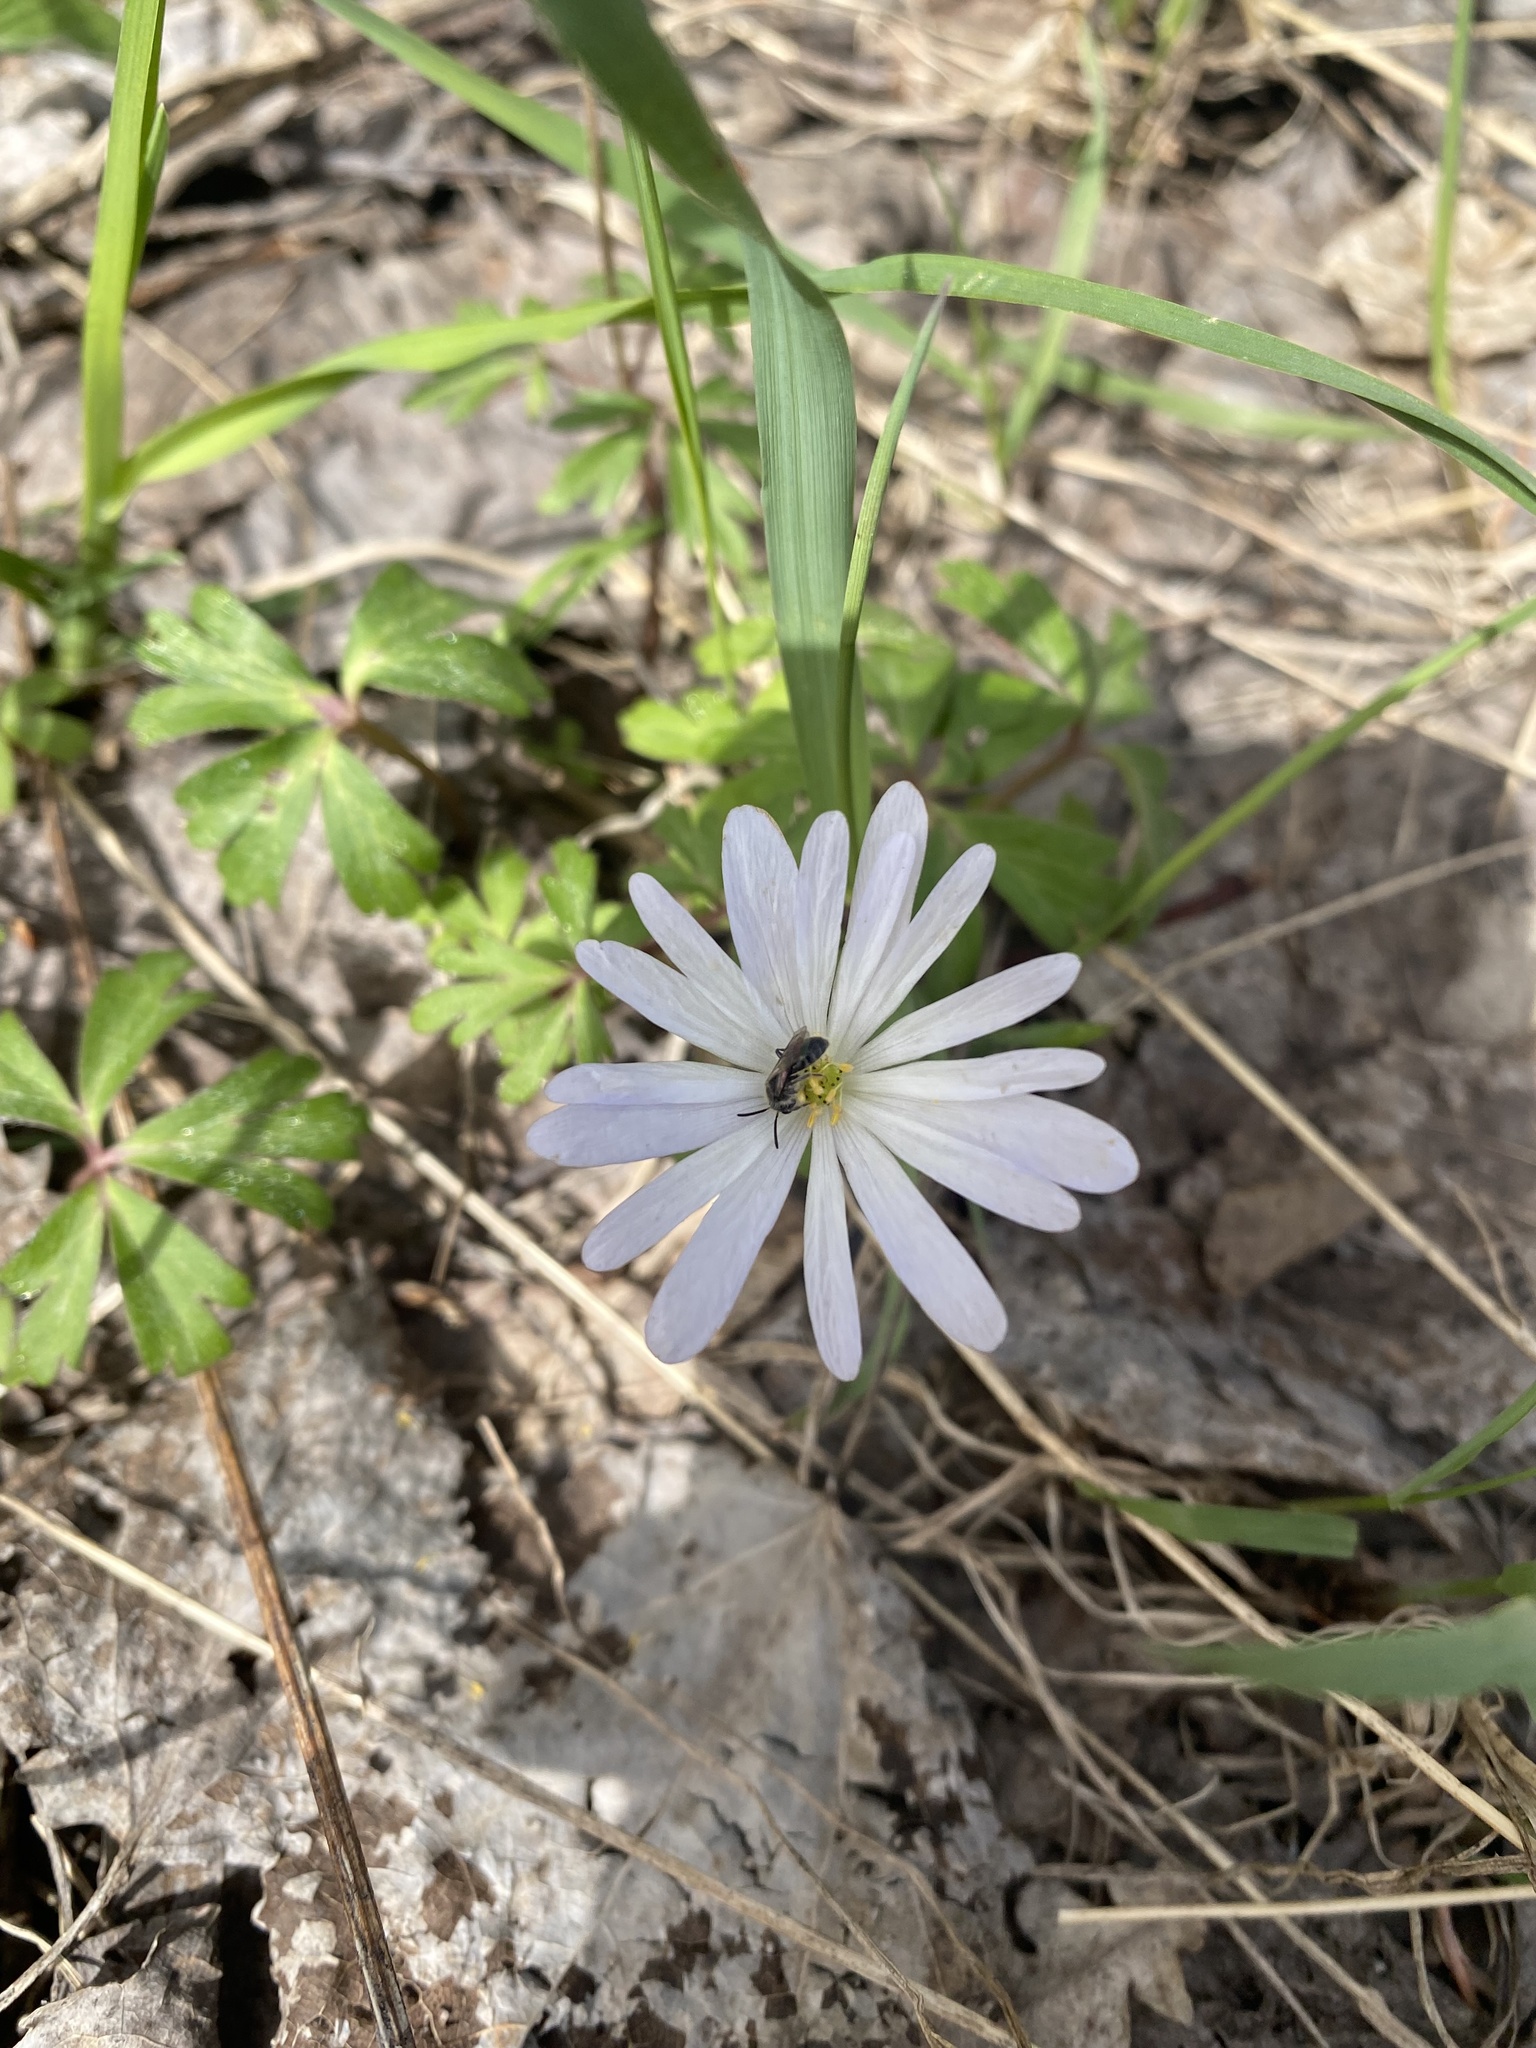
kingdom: Plantae
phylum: Tracheophyta
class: Magnoliopsida
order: Ranunculales
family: Ranunculaceae
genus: Anemone
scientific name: Anemone blanda
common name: Balkan anemone
